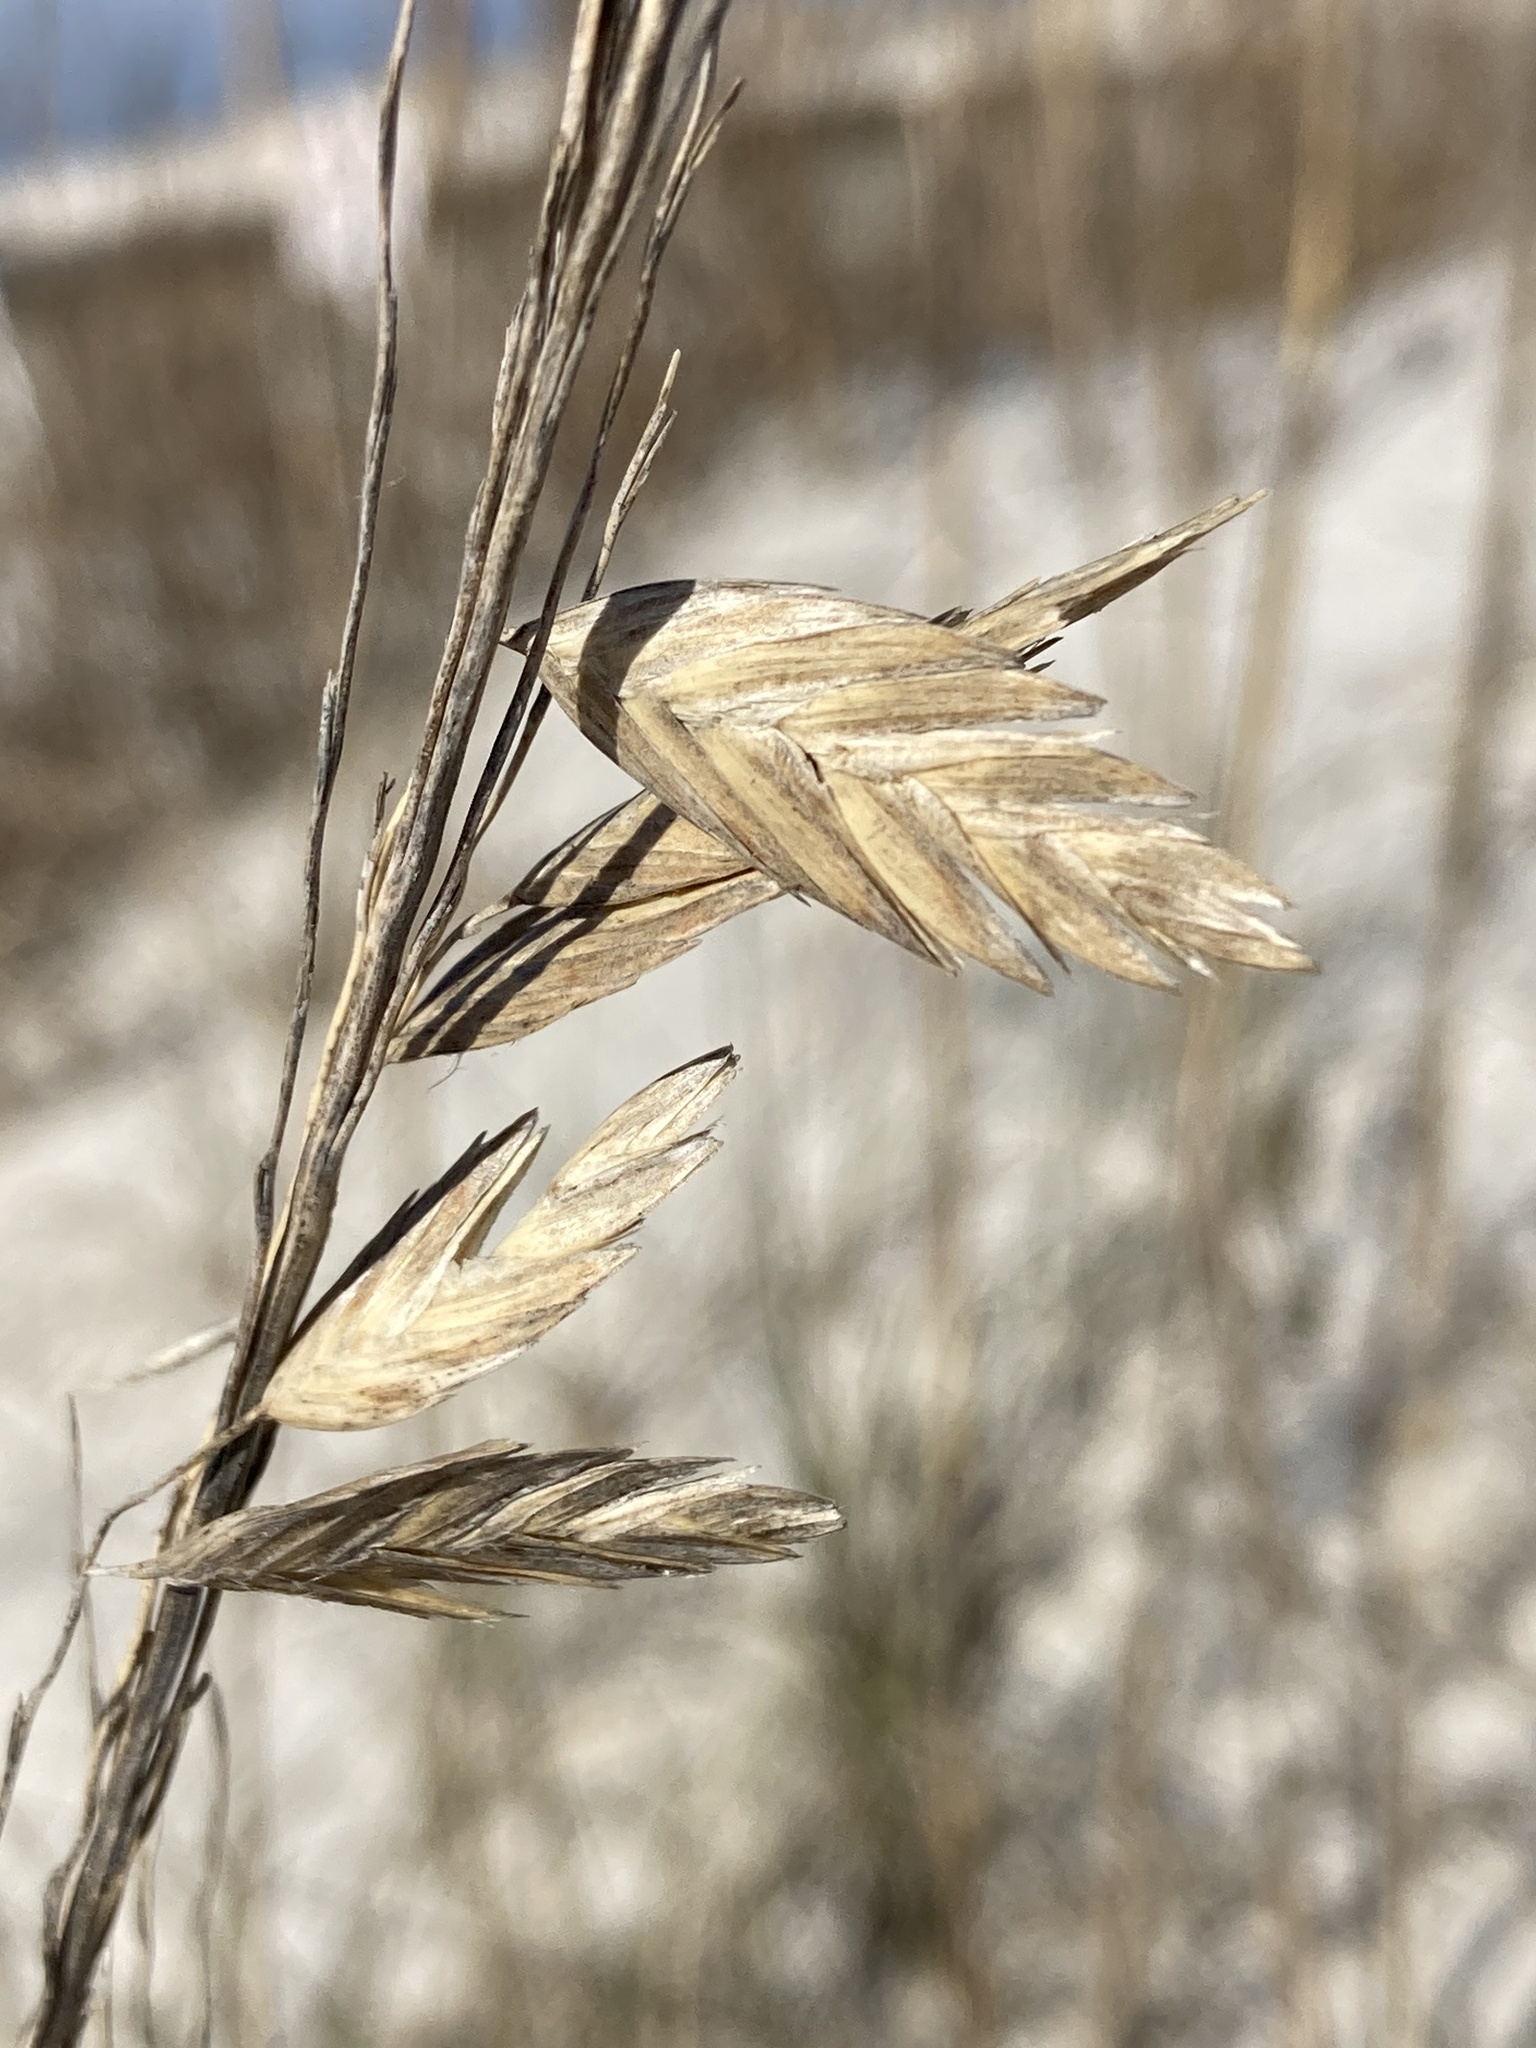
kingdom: Plantae
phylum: Tracheophyta
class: Liliopsida
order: Poales
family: Poaceae
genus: Uniola
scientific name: Uniola paniculata
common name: Seaside-oats
